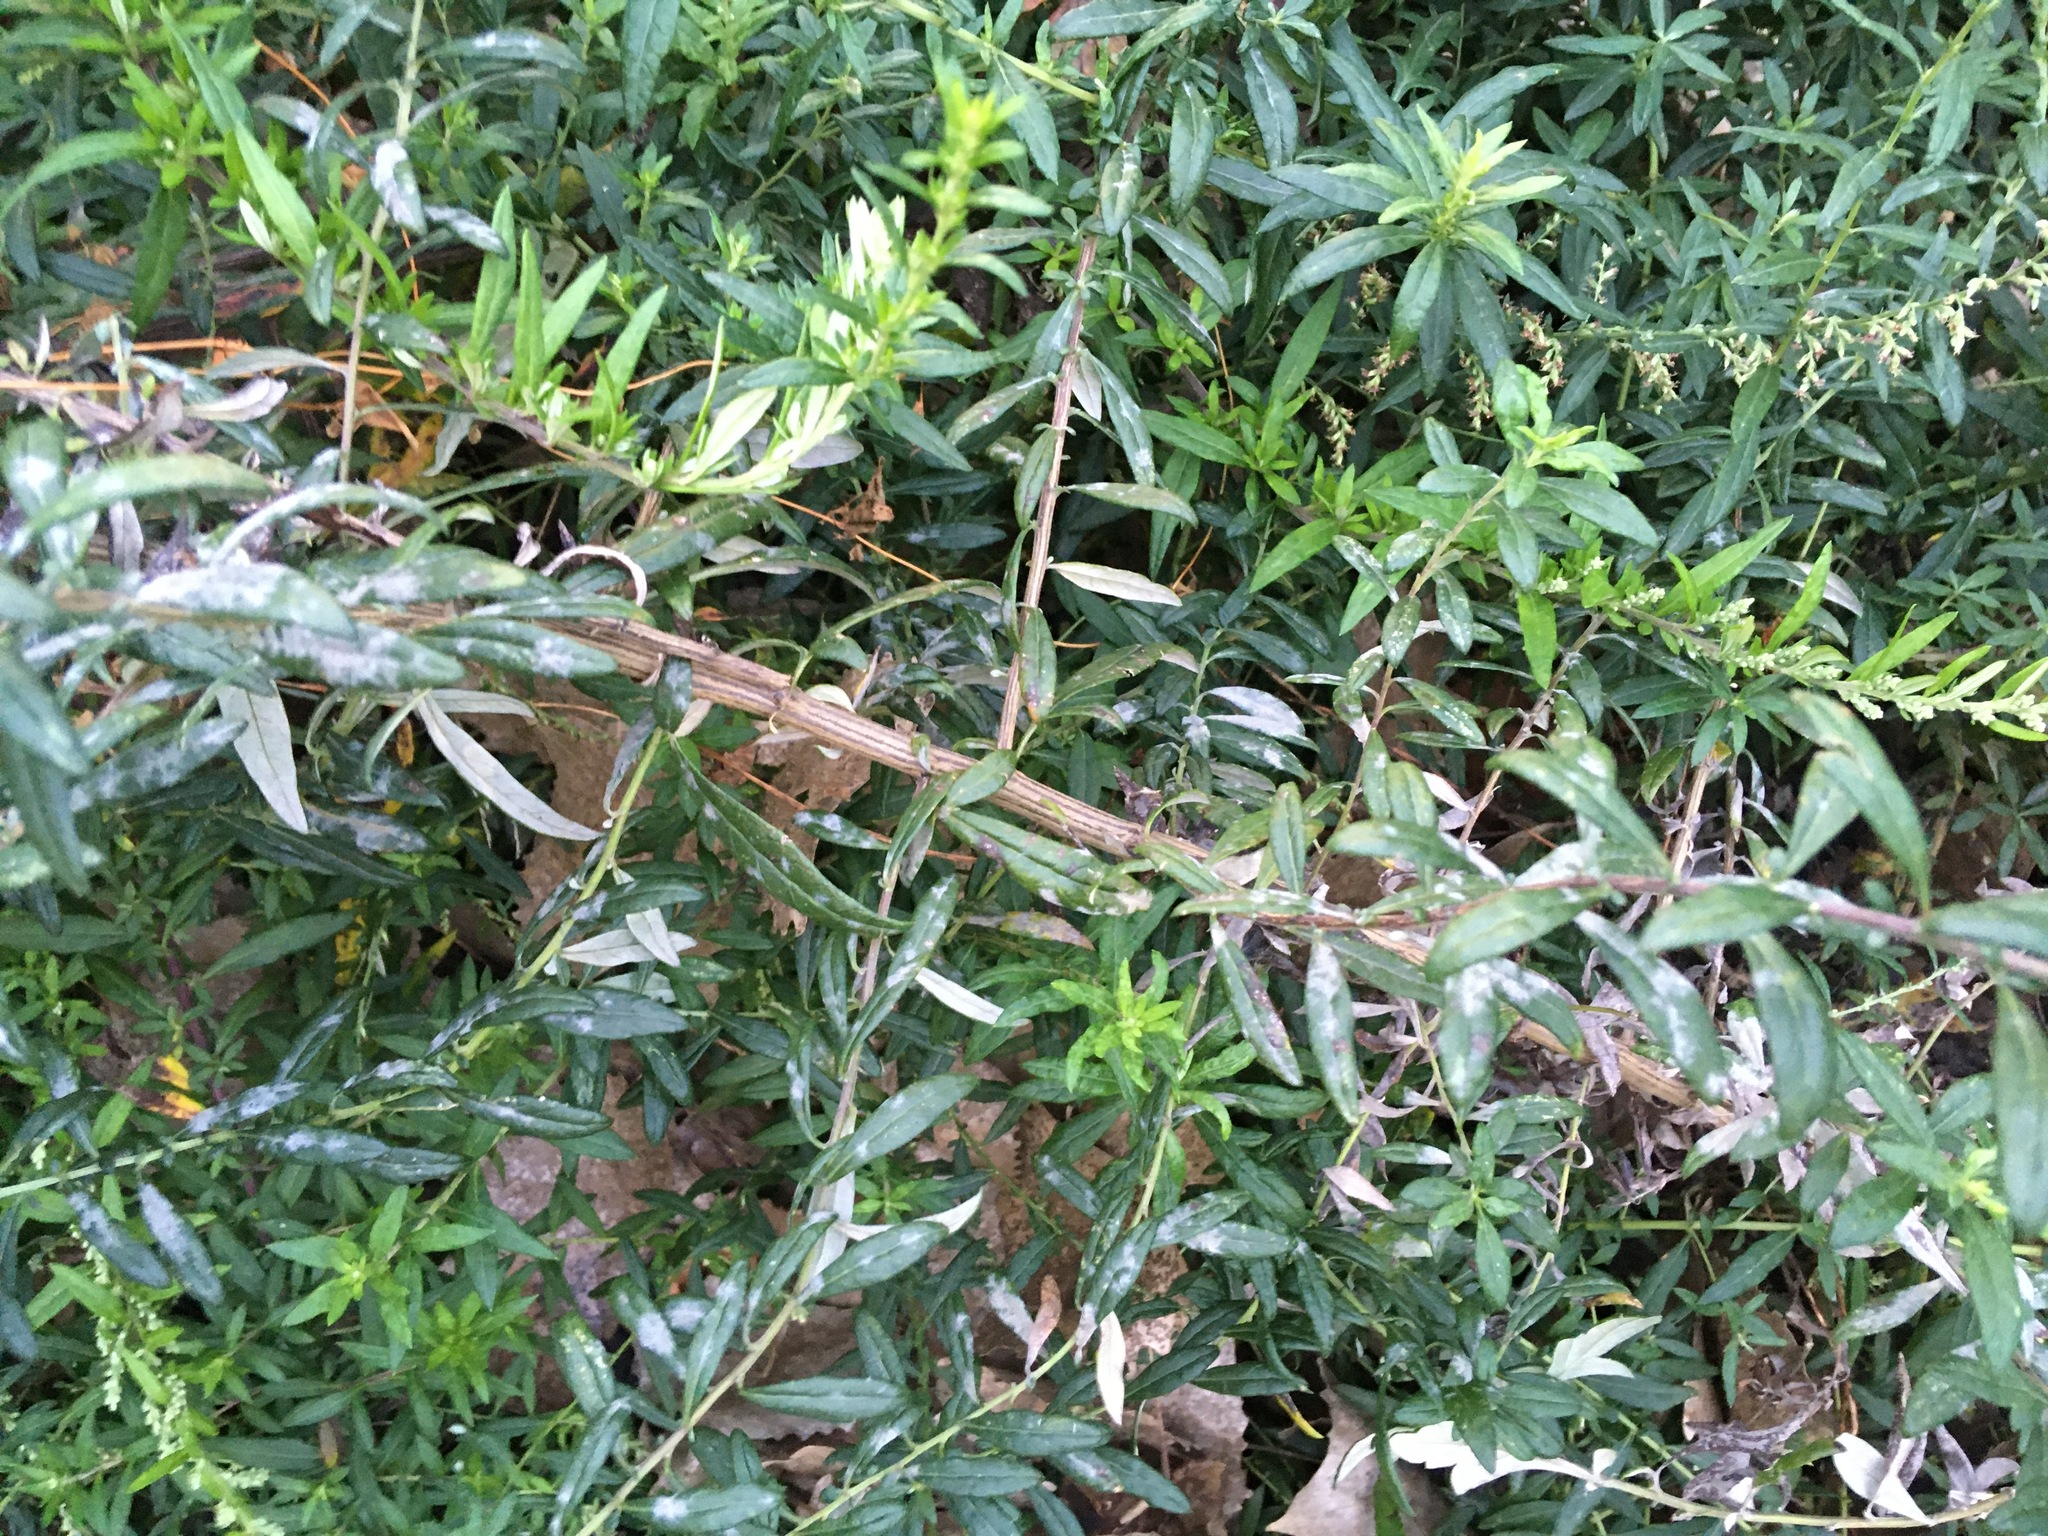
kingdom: Plantae
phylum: Tracheophyta
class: Magnoliopsida
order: Asterales
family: Asteraceae
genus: Artemisia
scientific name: Artemisia vulgaris
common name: Mugwort
